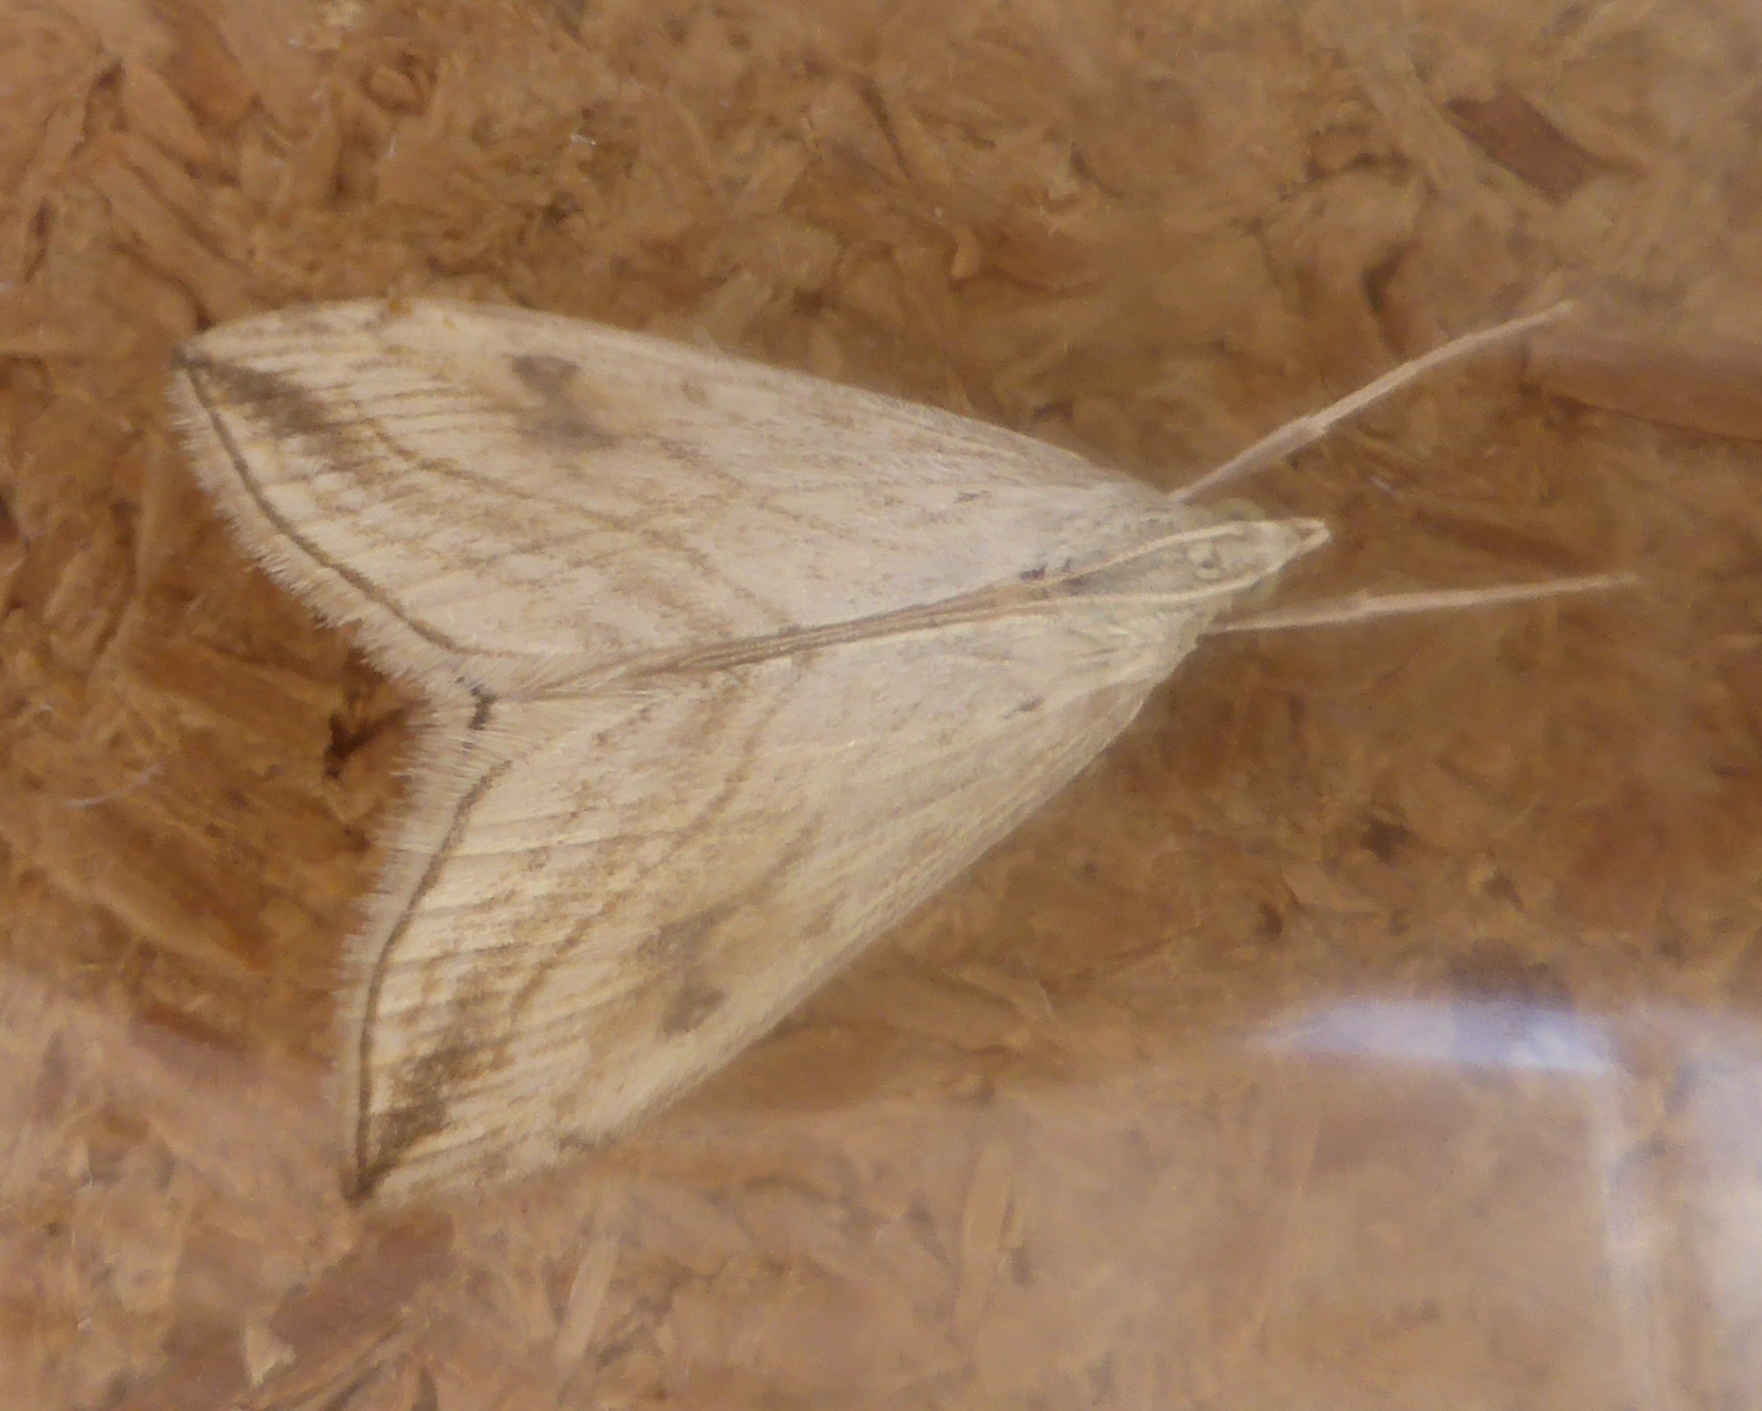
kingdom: Animalia
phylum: Arthropoda
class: Insecta
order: Lepidoptera
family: Crambidae
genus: Evergestis
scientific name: Evergestis forficalis
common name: Garden pebble
